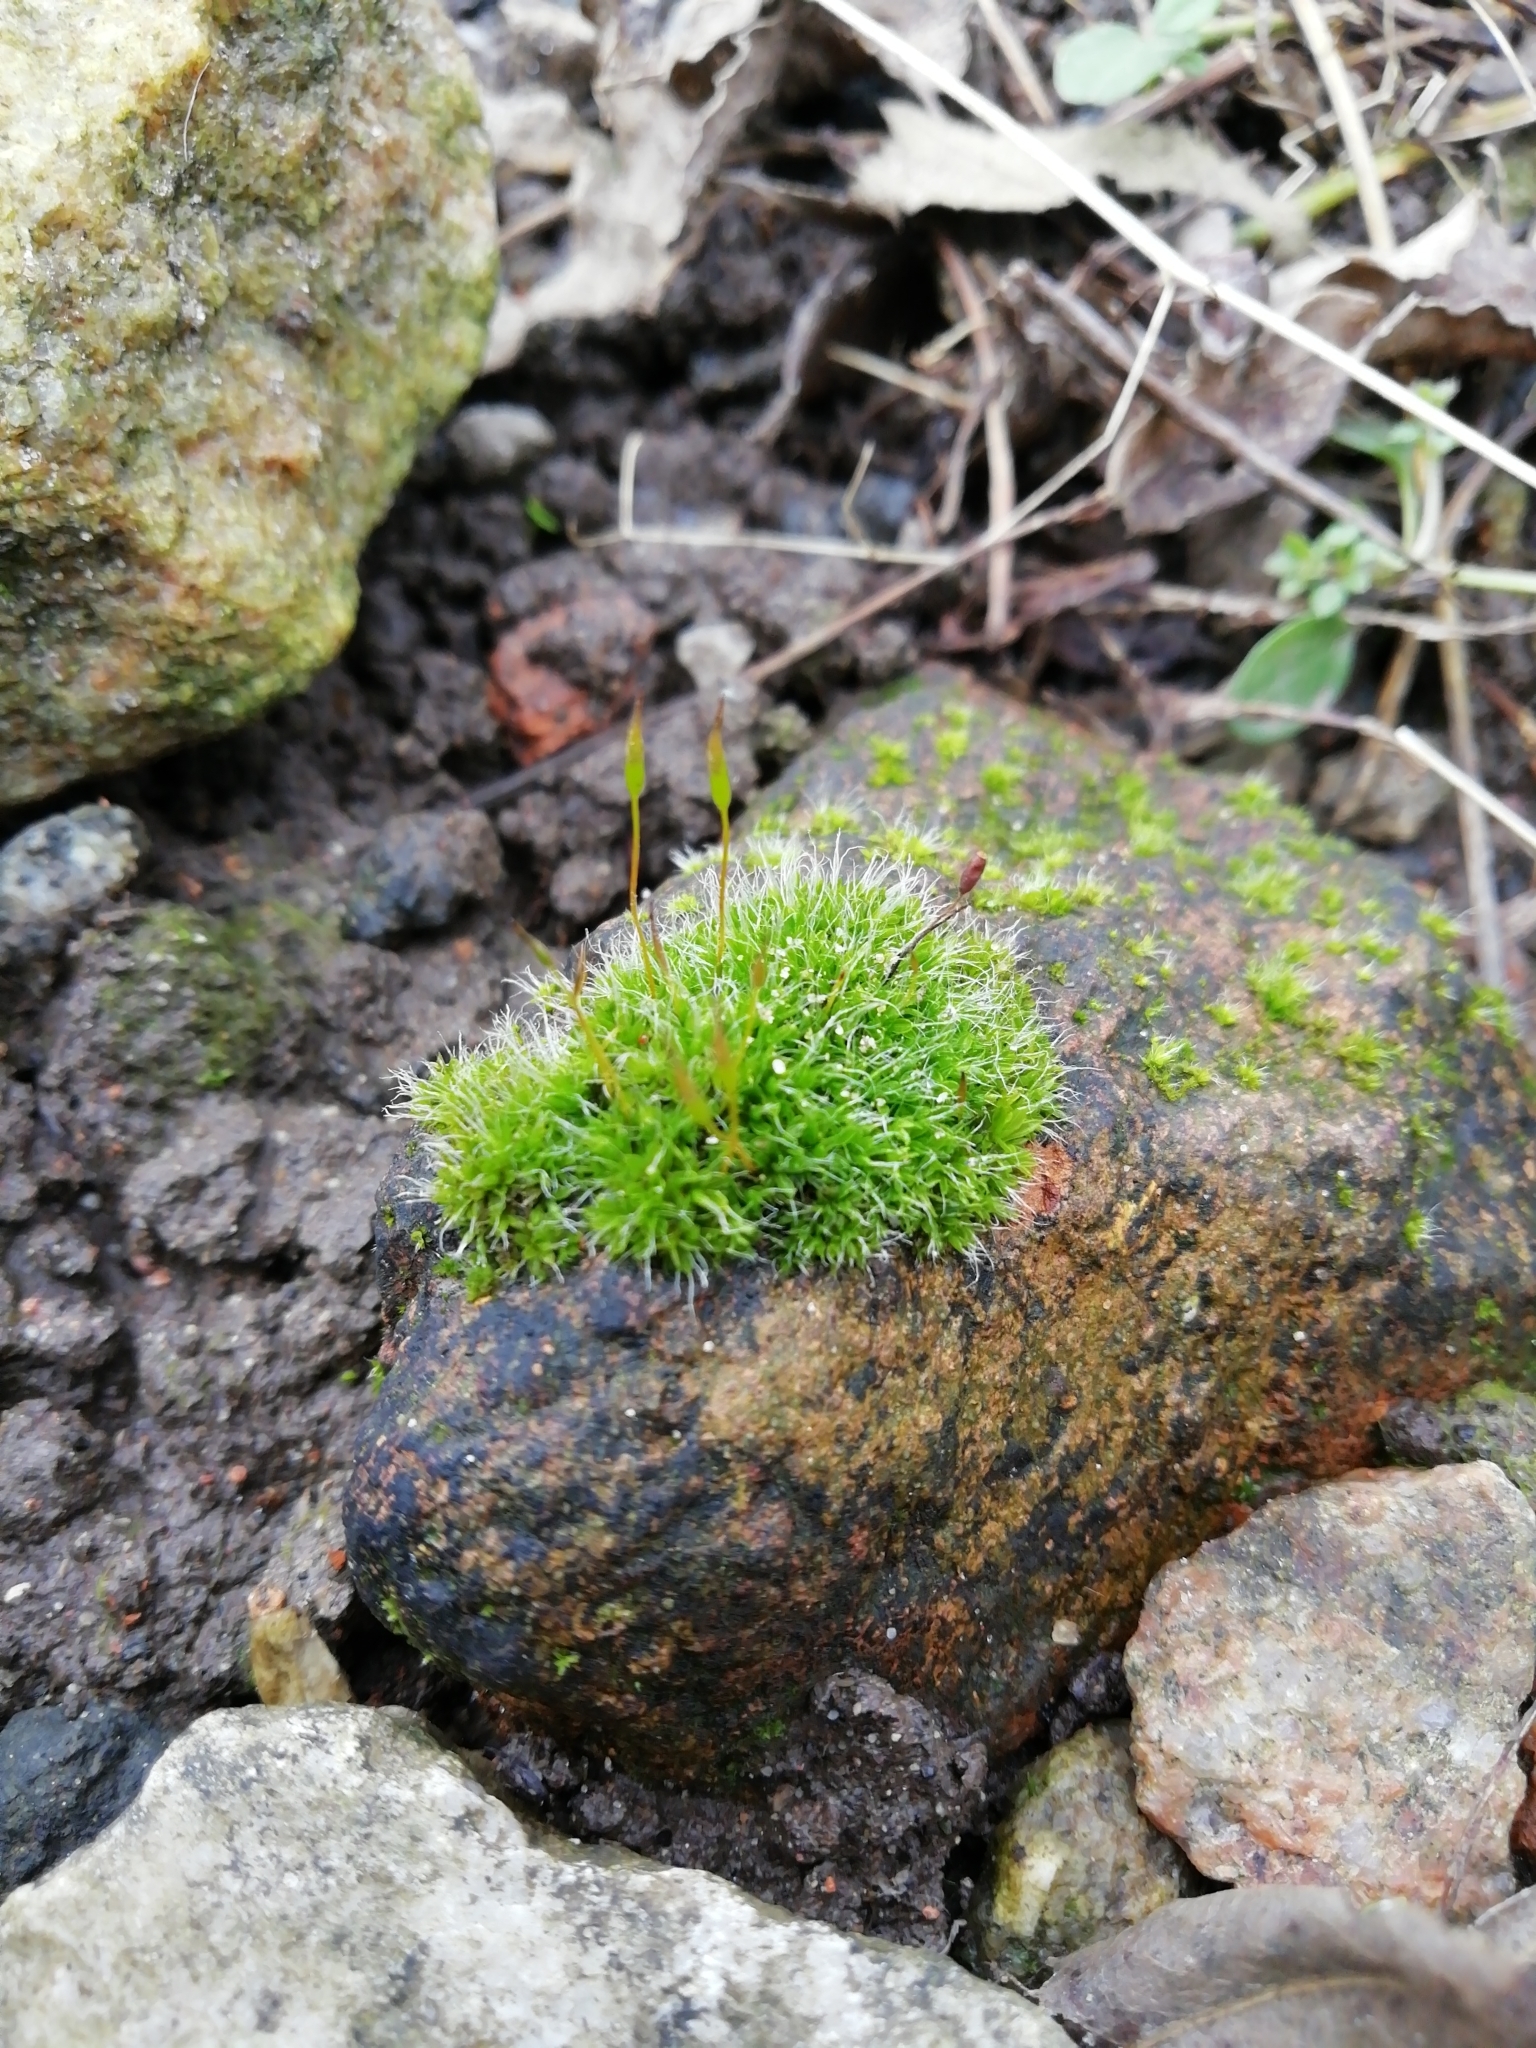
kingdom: Plantae
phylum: Bryophyta
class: Bryopsida
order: Pottiales
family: Pottiaceae
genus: Tortula
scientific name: Tortula muralis
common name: Wall screw-moss
